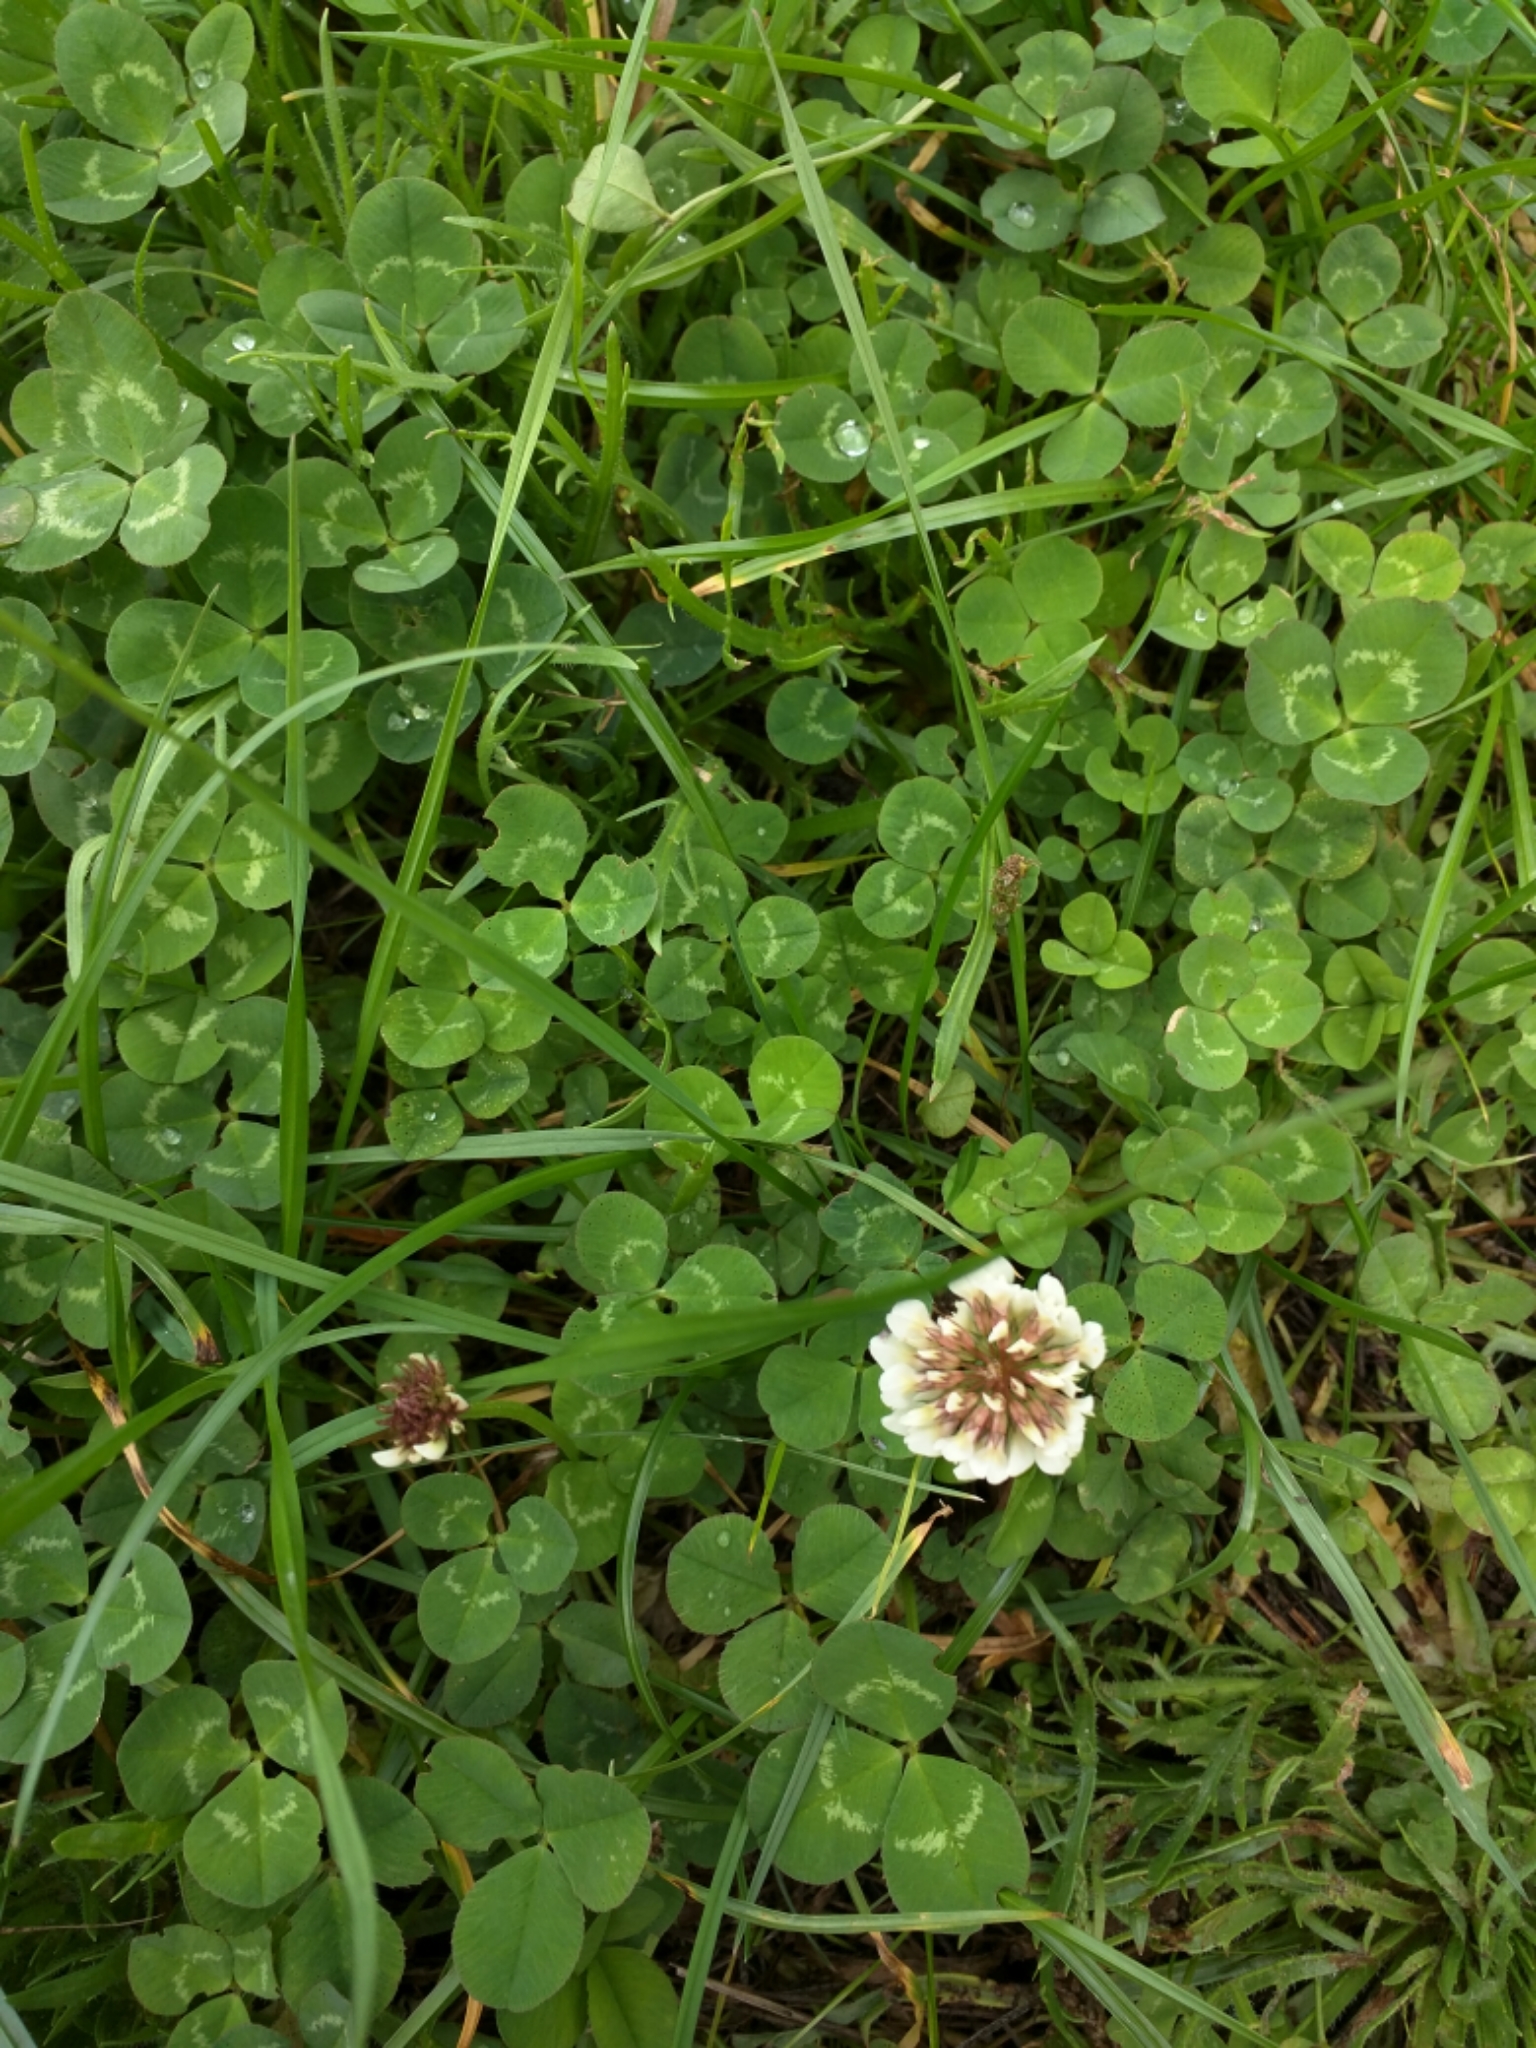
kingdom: Plantae
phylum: Tracheophyta
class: Magnoliopsida
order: Fabales
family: Fabaceae
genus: Trifolium
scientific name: Trifolium repens
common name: White clover
